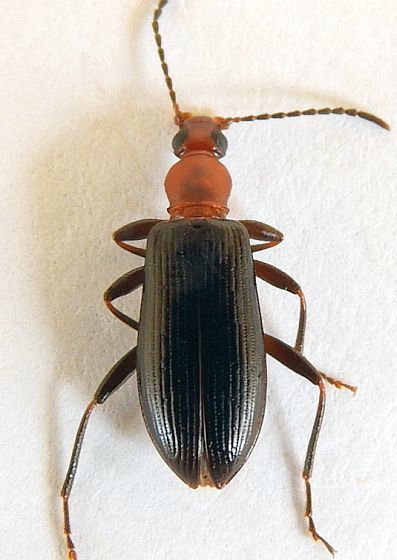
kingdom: Animalia
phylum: Arthropoda
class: Insecta
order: Coleoptera
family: Tenebrionidae
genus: Statira
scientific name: Statira pluripunctata
